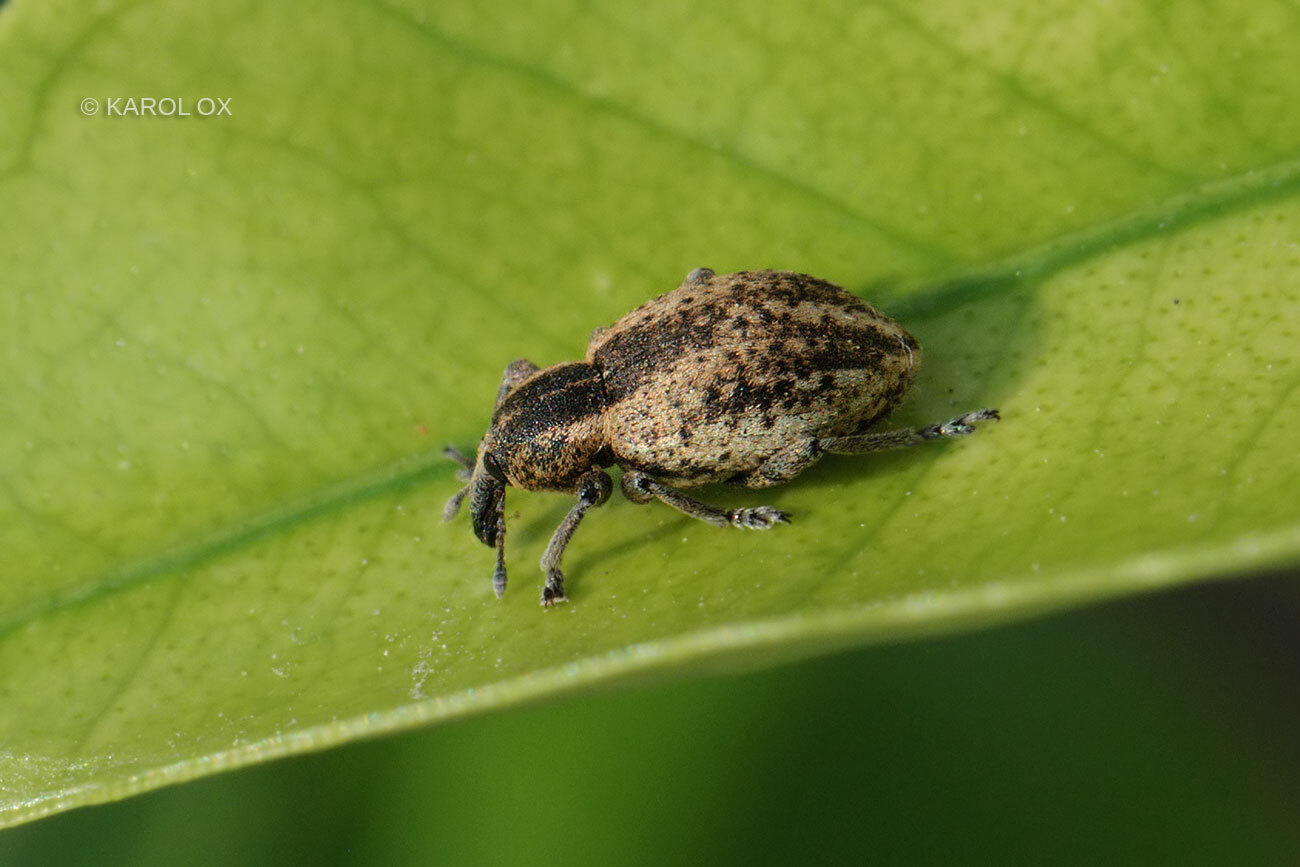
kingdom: Animalia
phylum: Arthropoda
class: Insecta
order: Coleoptera
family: Curculionidae
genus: Hypera
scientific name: Hypera miles
